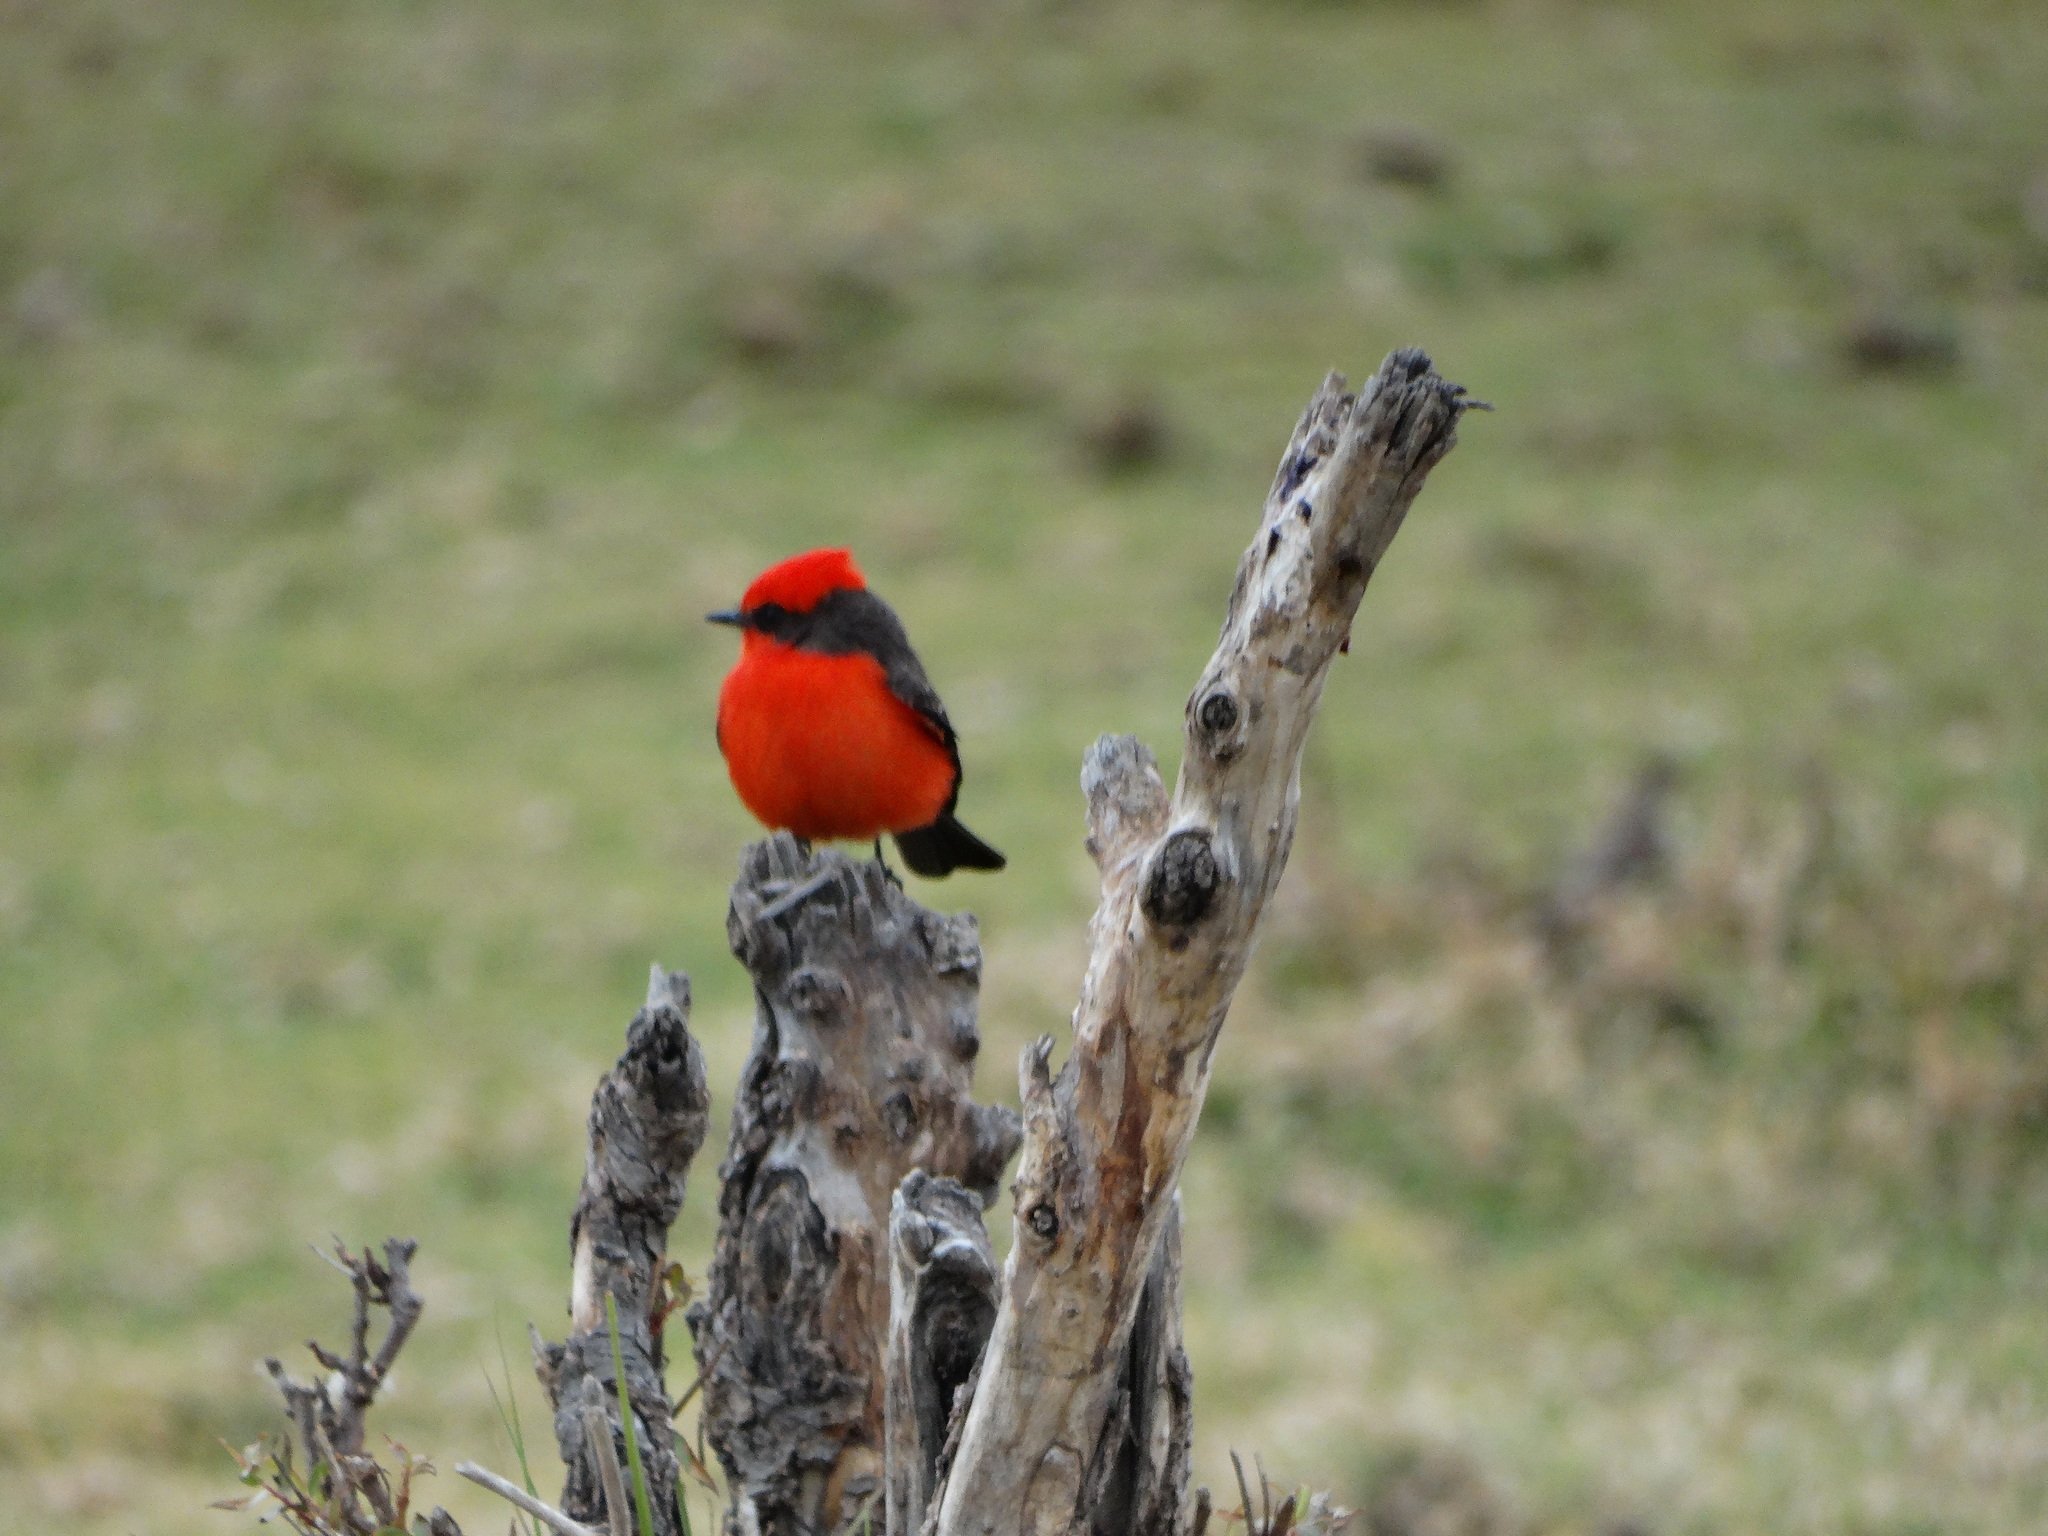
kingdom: Animalia
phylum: Chordata
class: Aves
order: Passeriformes
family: Tyrannidae
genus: Pyrocephalus
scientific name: Pyrocephalus rubinus
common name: Vermilion flycatcher
